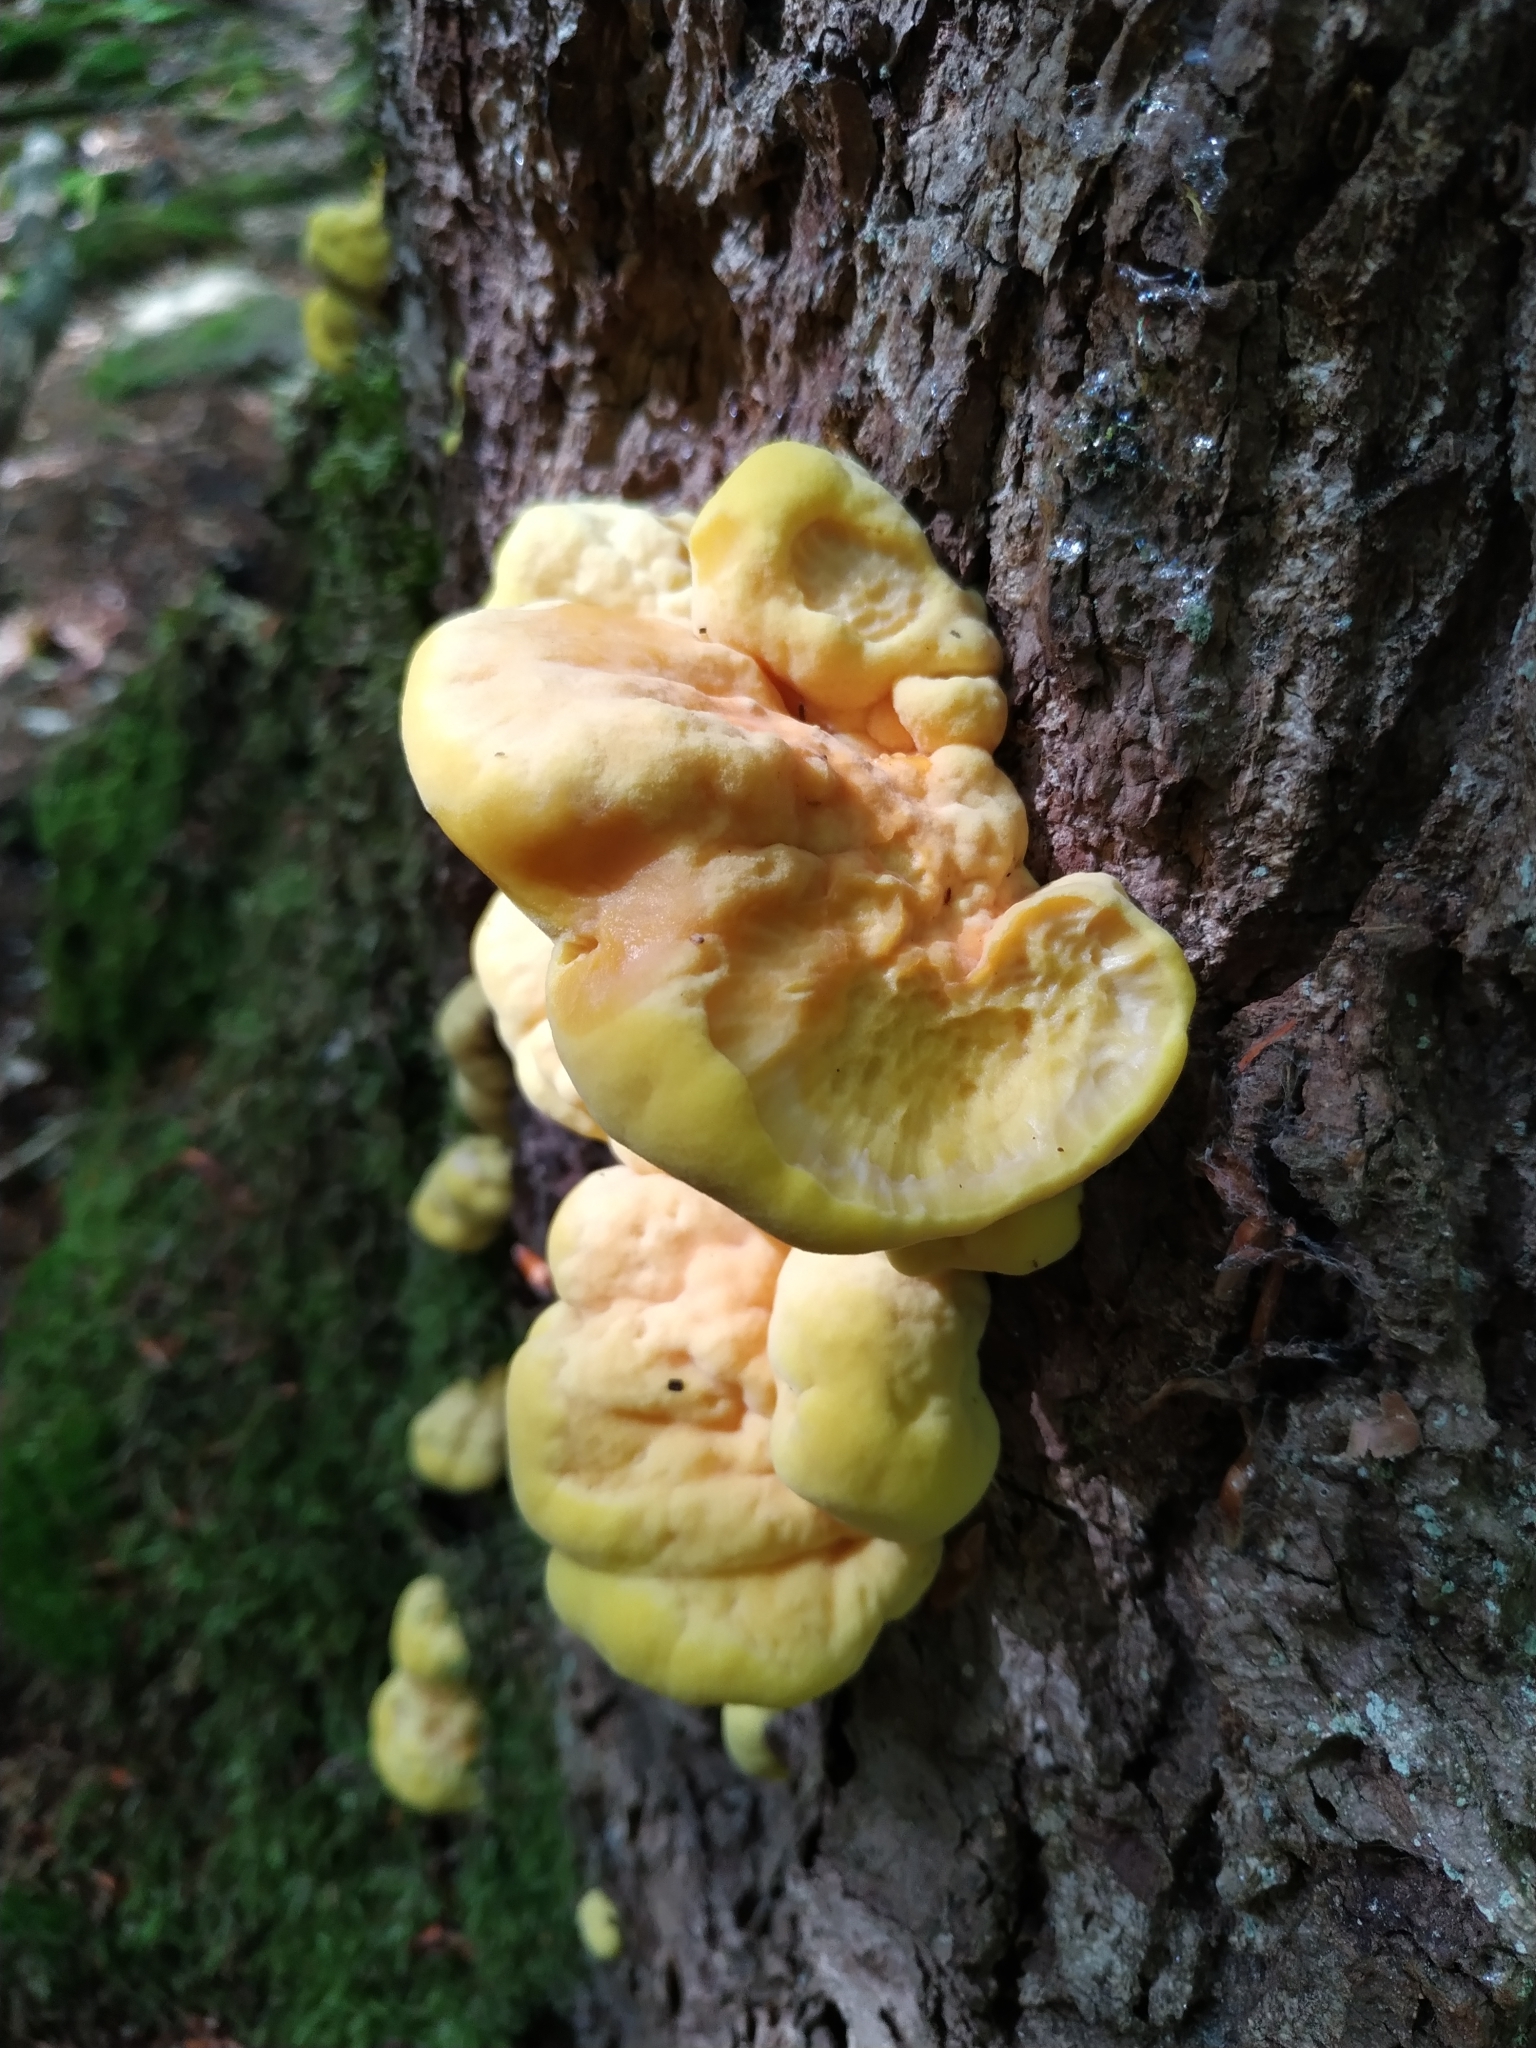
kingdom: Fungi
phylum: Basidiomycota
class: Agaricomycetes
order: Polyporales
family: Laetiporaceae
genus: Laetiporus
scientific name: Laetiporus sulphureus
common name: Chicken of the woods
